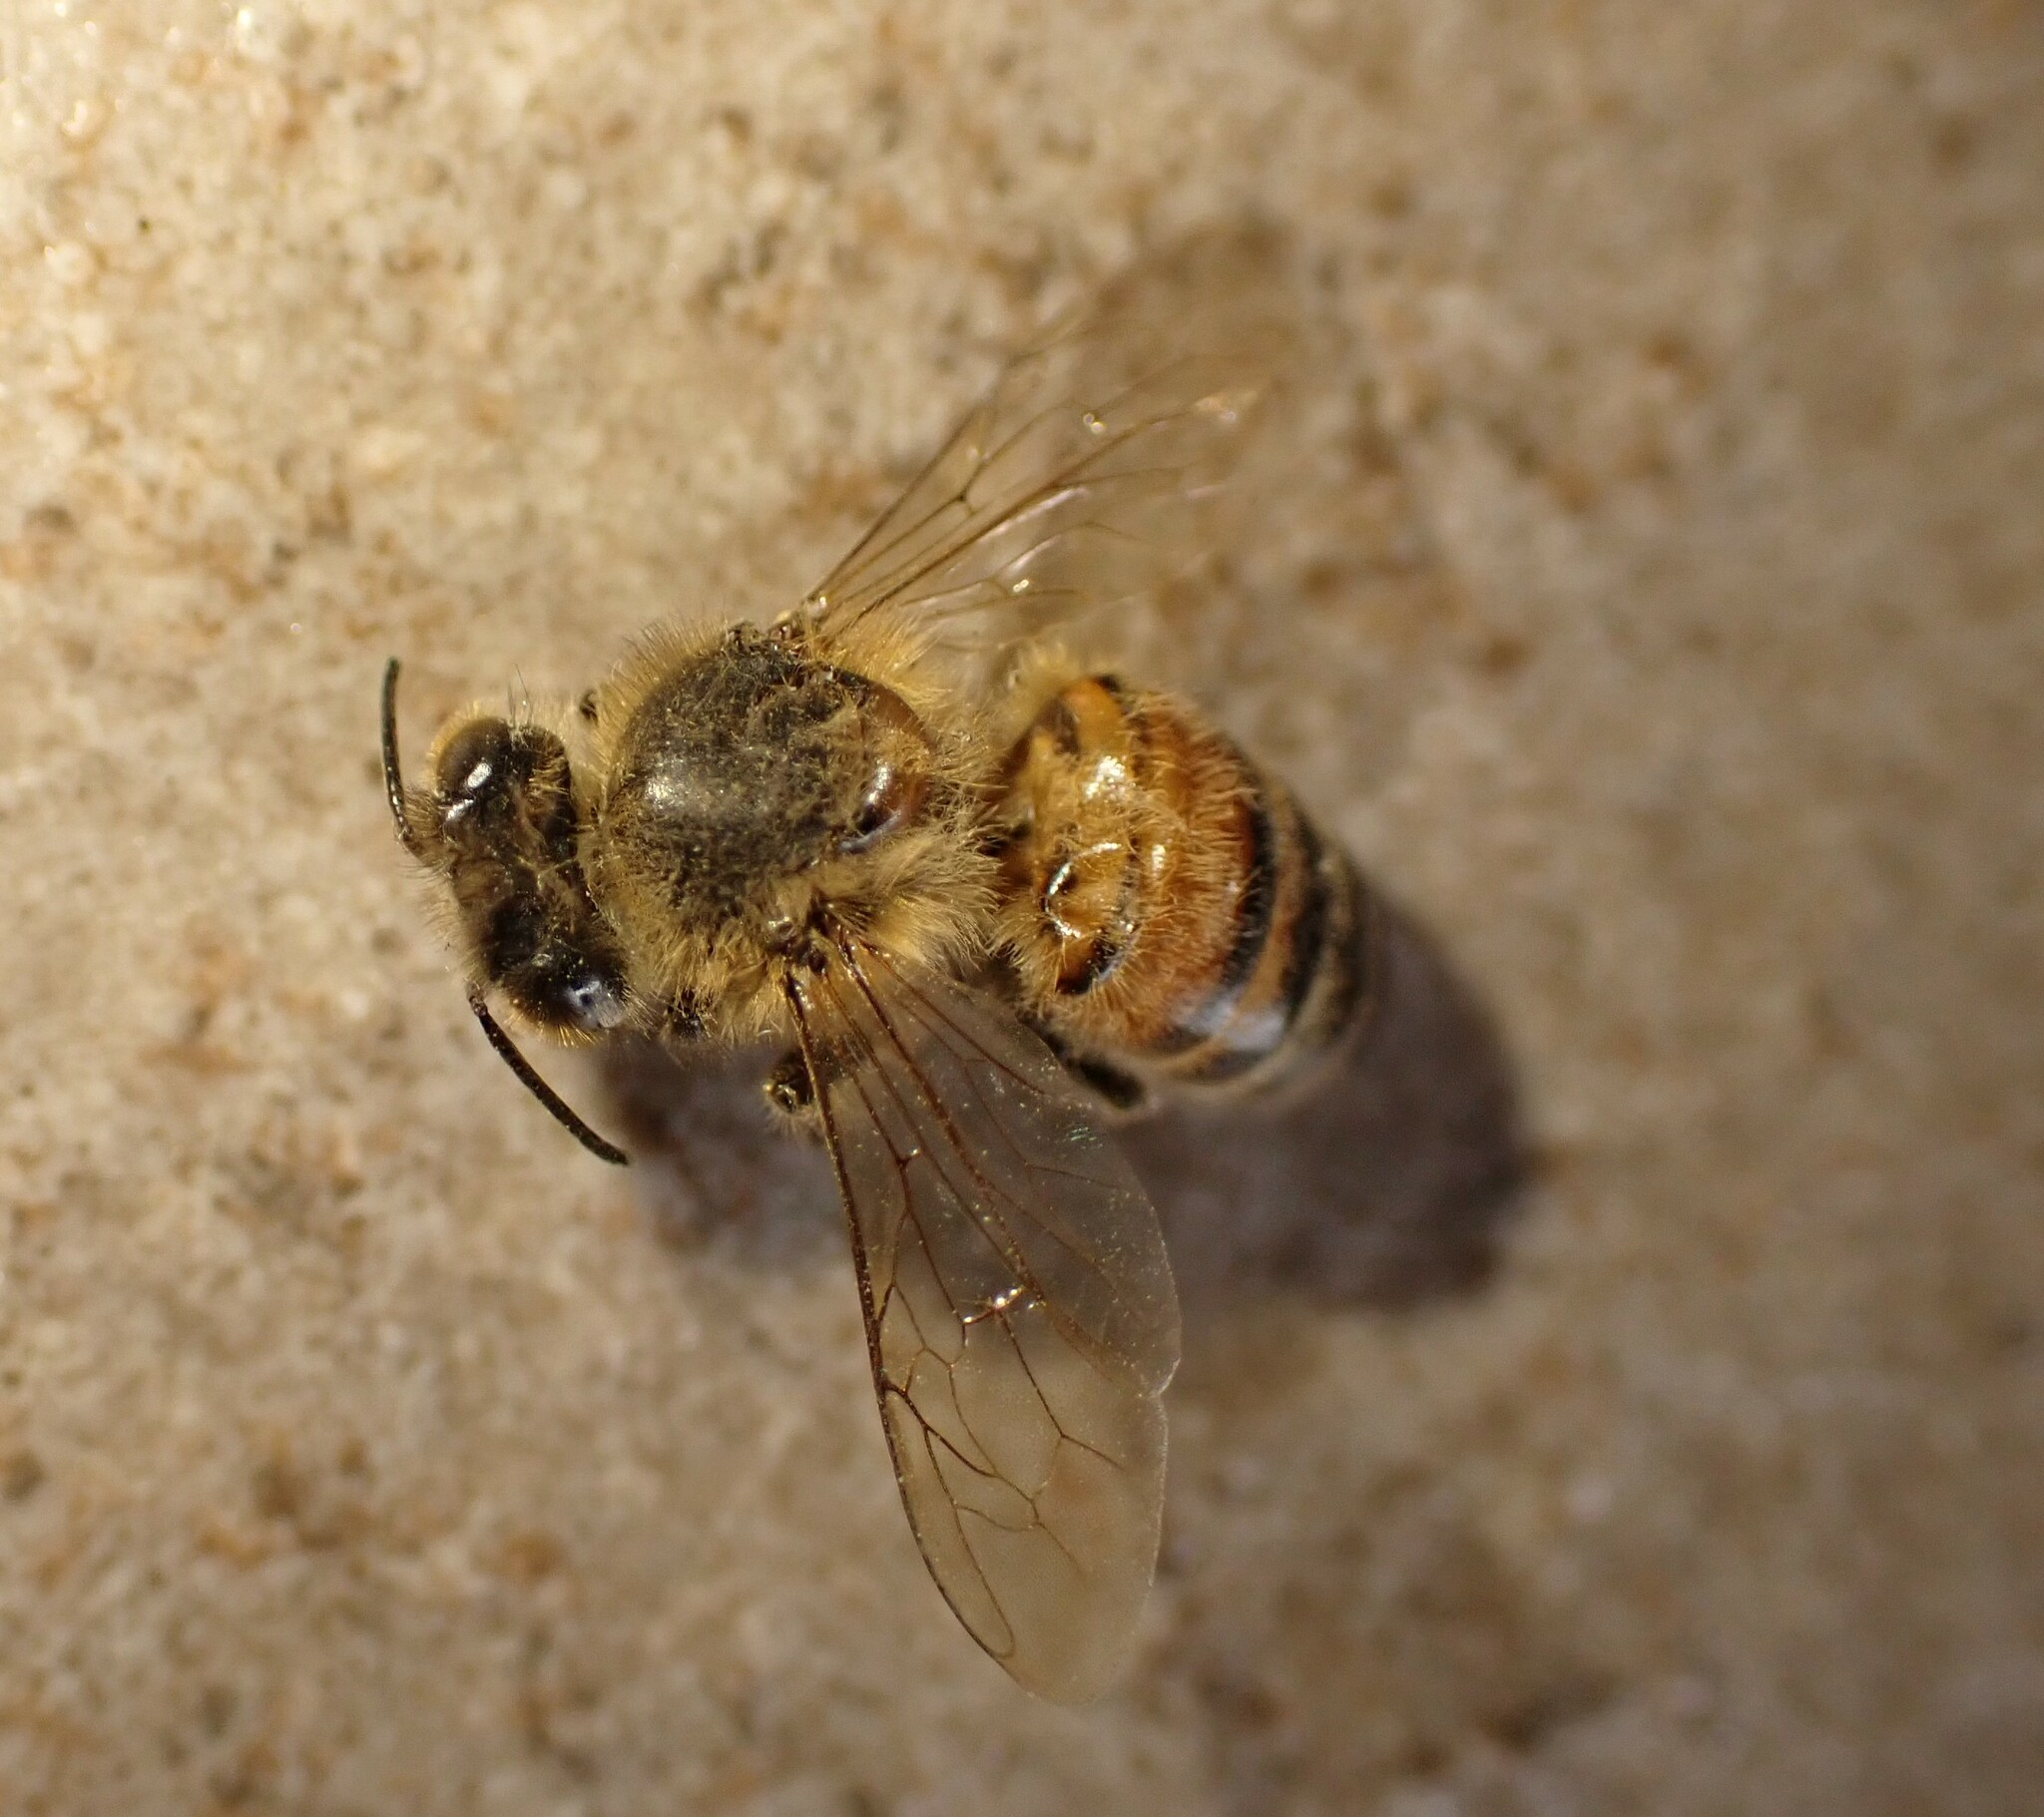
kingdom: Animalia
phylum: Arthropoda
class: Insecta
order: Hymenoptera
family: Apidae
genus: Apis
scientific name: Apis mellifera
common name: Honey bee
